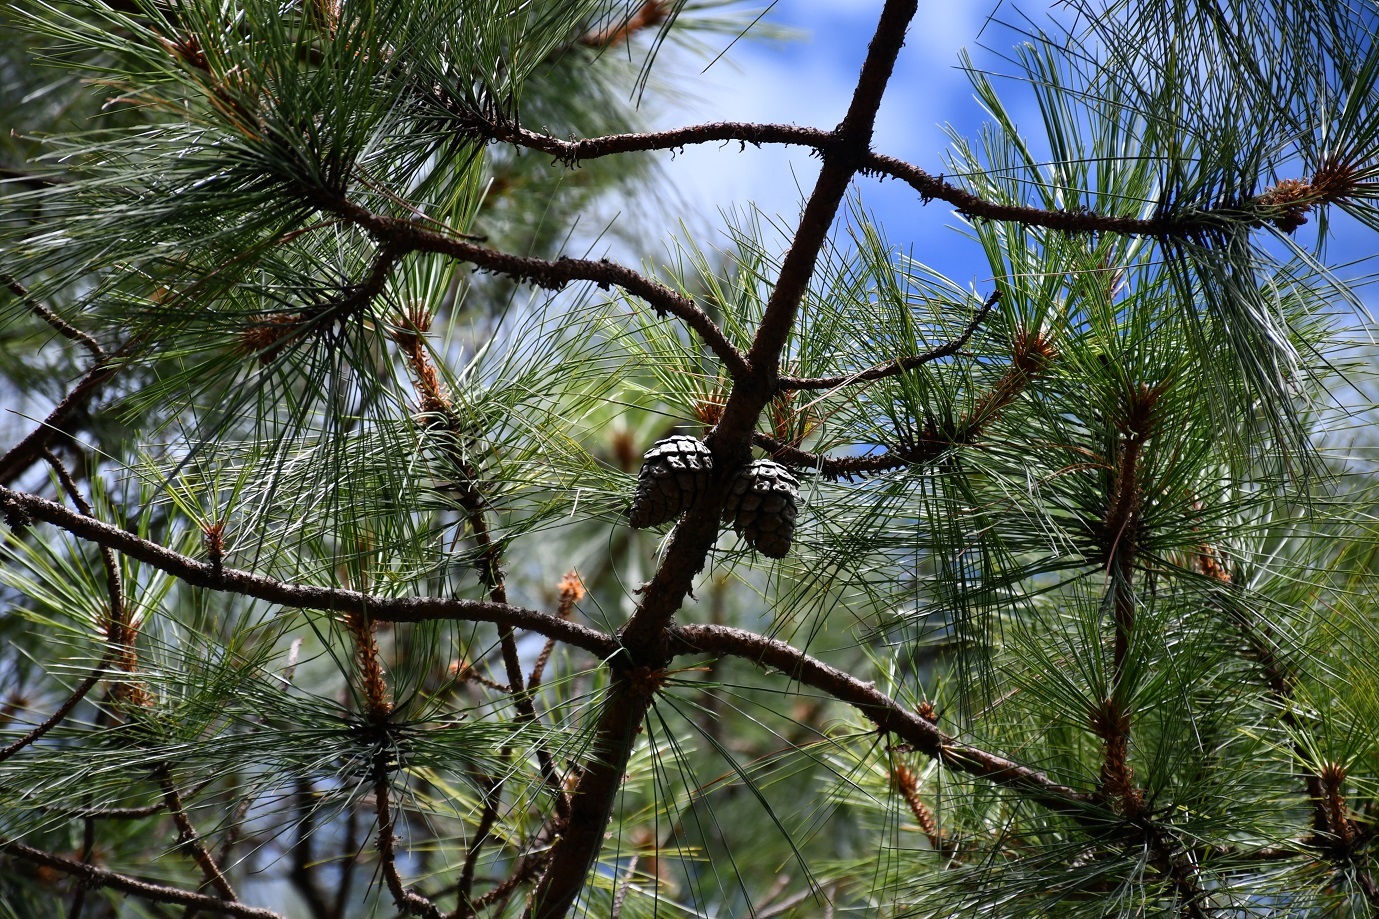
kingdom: Plantae
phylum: Tracheophyta
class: Pinopsida
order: Pinales
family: Pinaceae
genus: Pinus
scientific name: Pinus teocote
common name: Aztec pine
